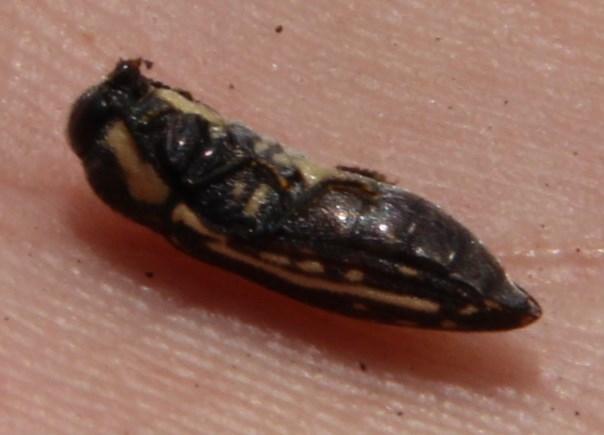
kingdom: Animalia
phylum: Arthropoda
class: Insecta
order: Coleoptera
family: Buprestidae
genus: Acmaeodera
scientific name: Acmaeodera gracilis
